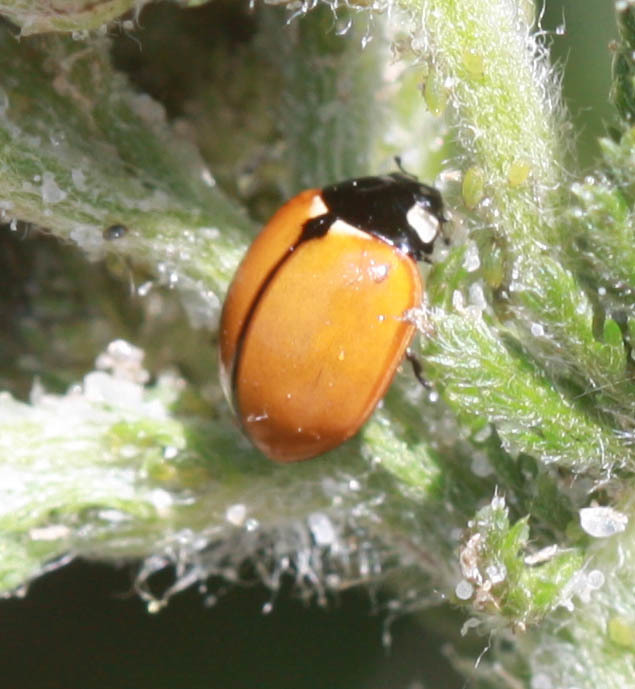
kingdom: Animalia
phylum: Arthropoda
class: Insecta
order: Coleoptera
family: Coccinellidae
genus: Coccinella
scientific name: Coccinella californica
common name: Lady beetle
